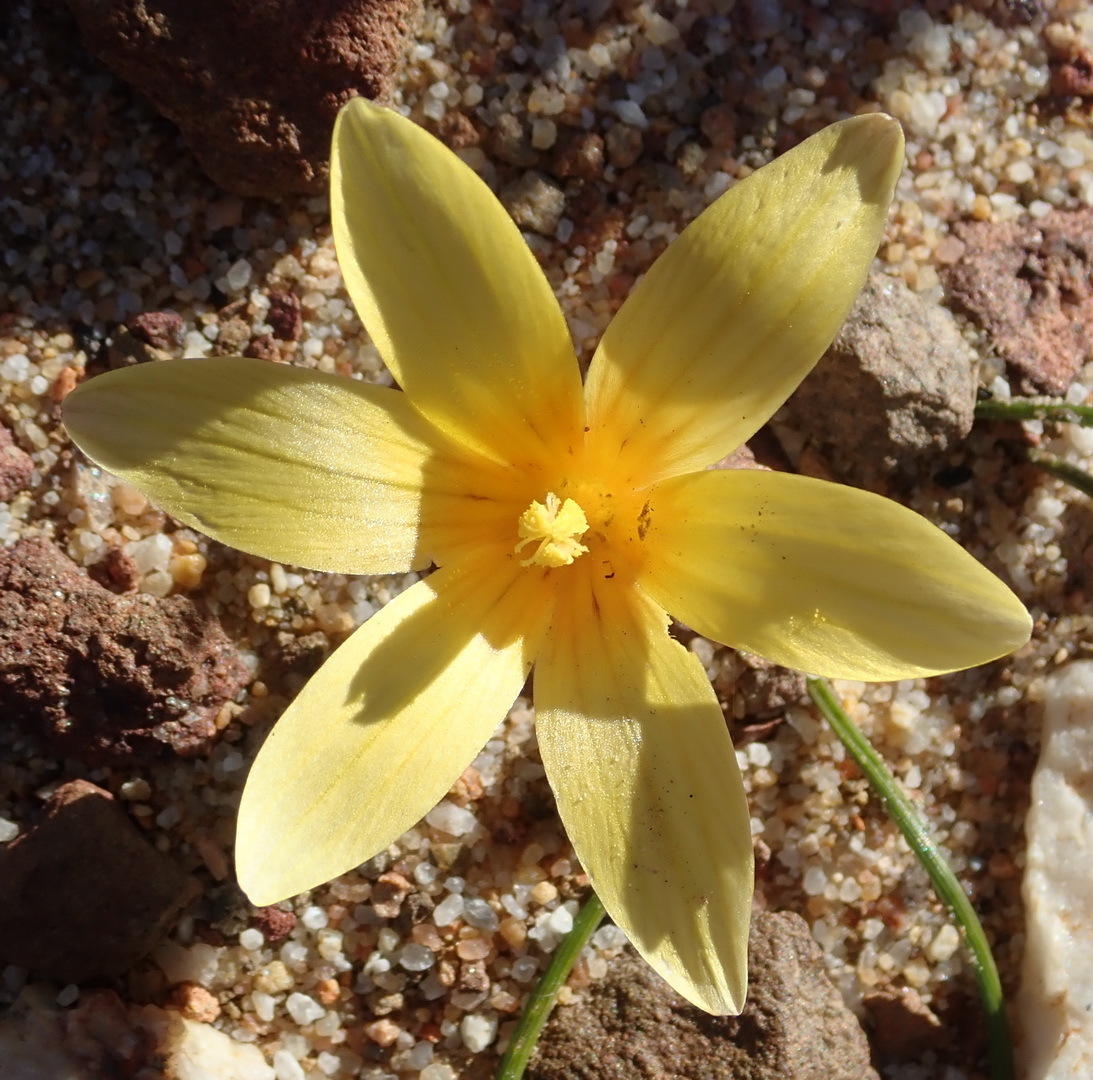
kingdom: Plantae
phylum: Tracheophyta
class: Liliopsida
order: Asparagales
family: Iridaceae
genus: Romulea
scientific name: Romulea austinii
